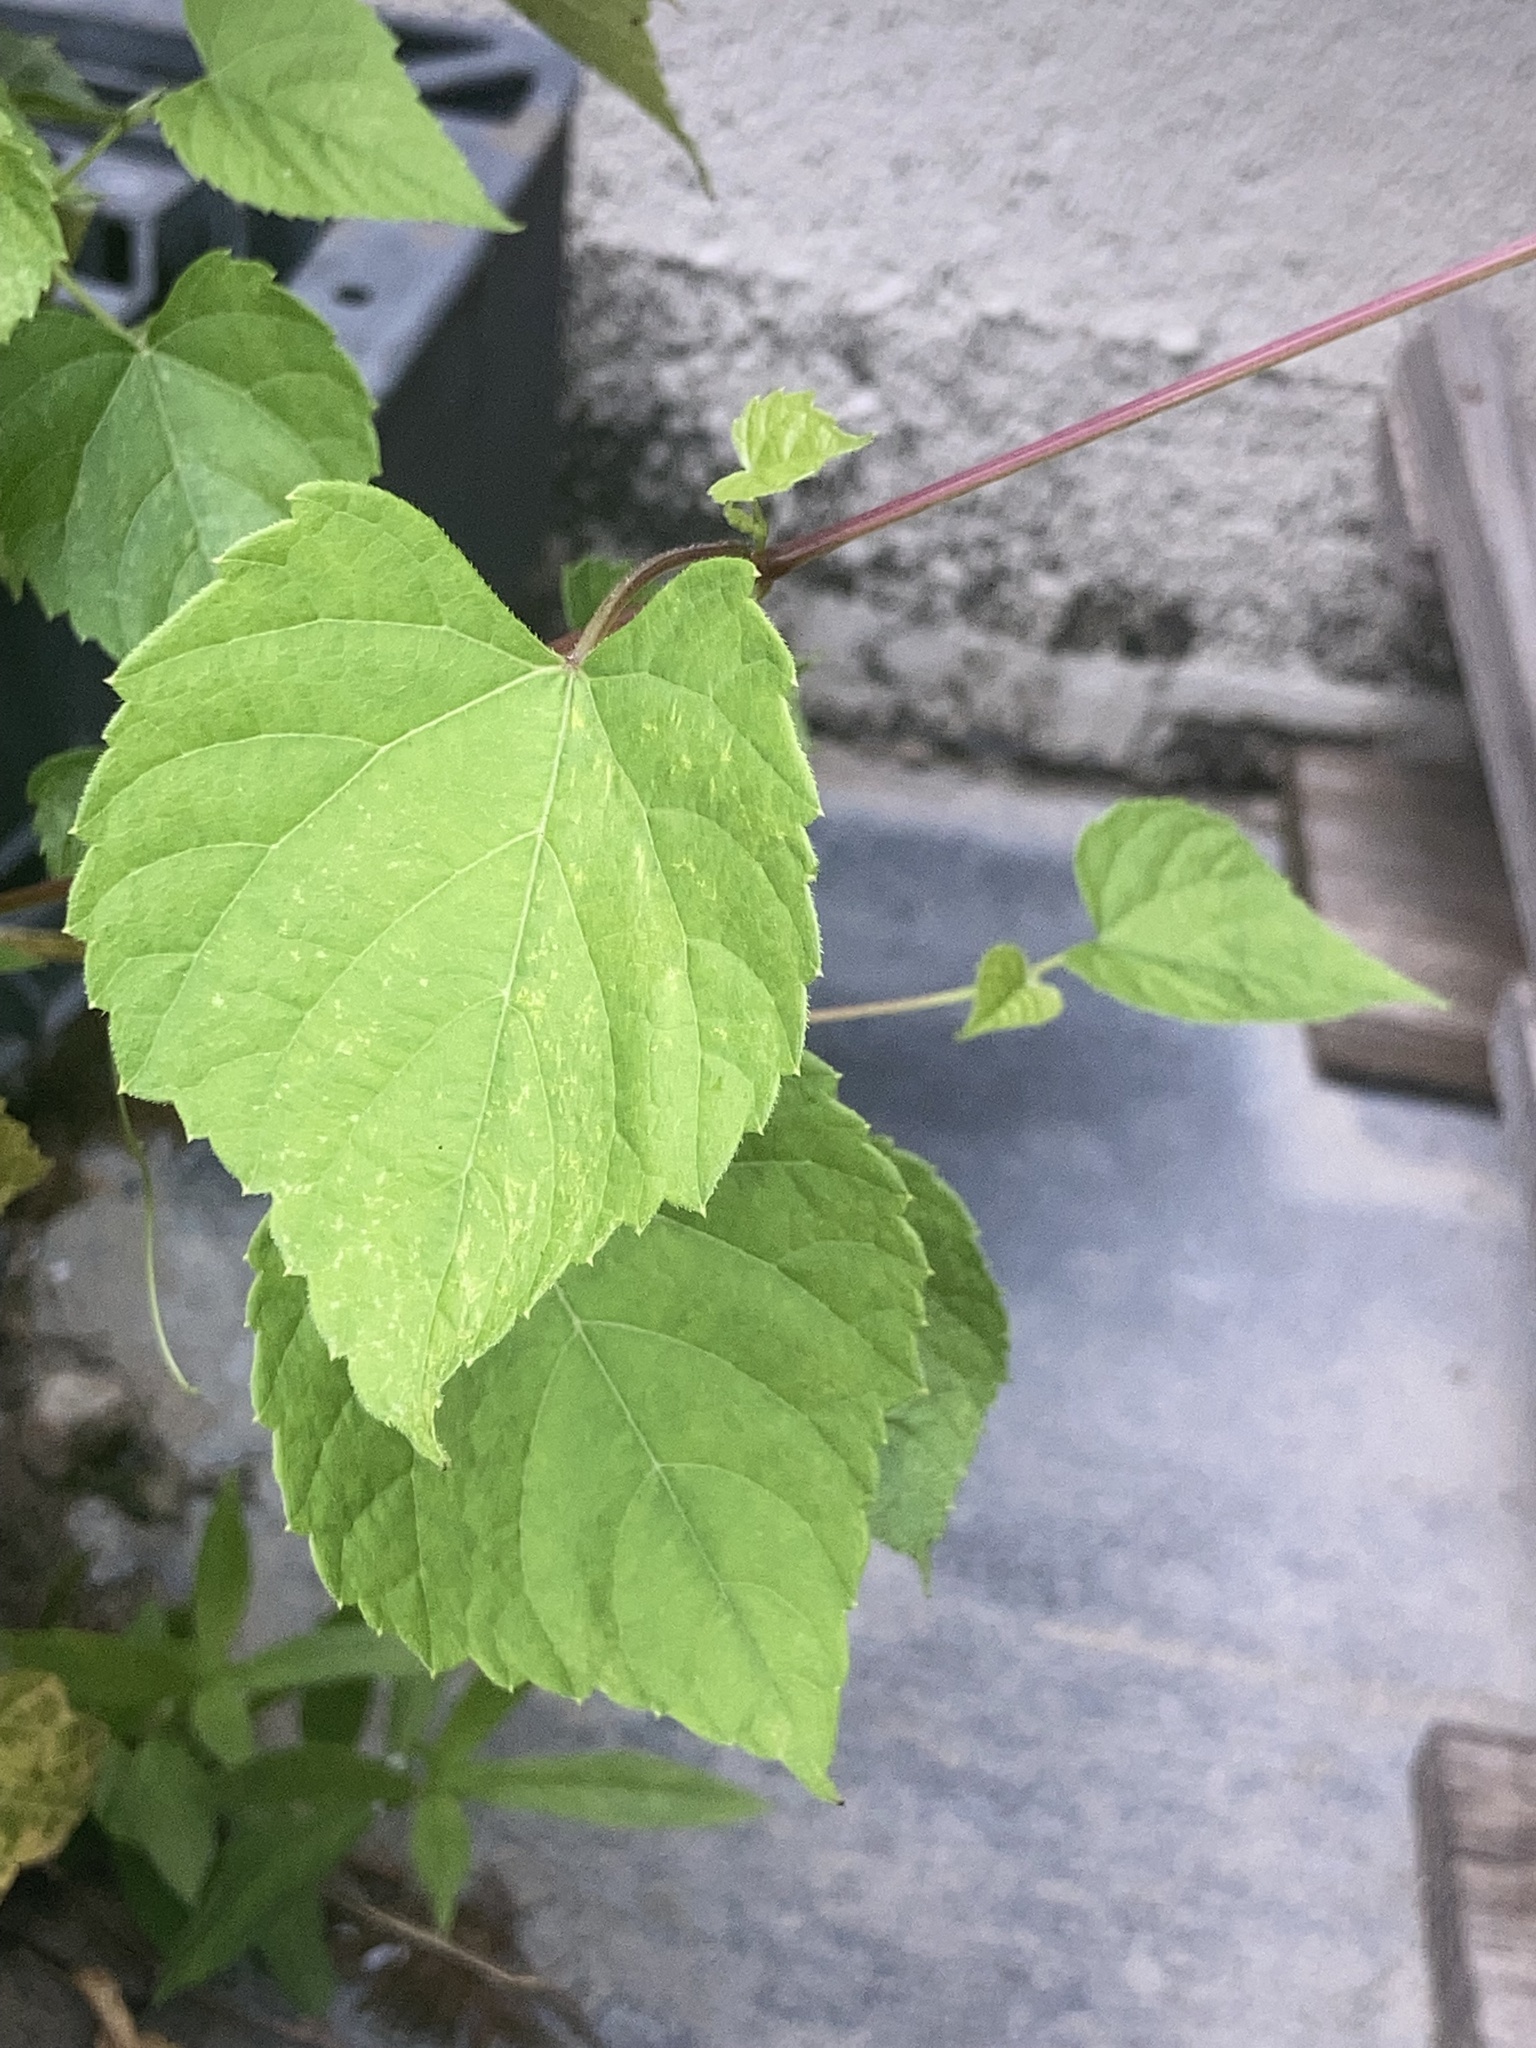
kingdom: Plantae
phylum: Tracheophyta
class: Magnoliopsida
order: Vitales
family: Vitaceae
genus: Ampelopsis
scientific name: Ampelopsis cordata
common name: Heart-leaf ampelopsis
